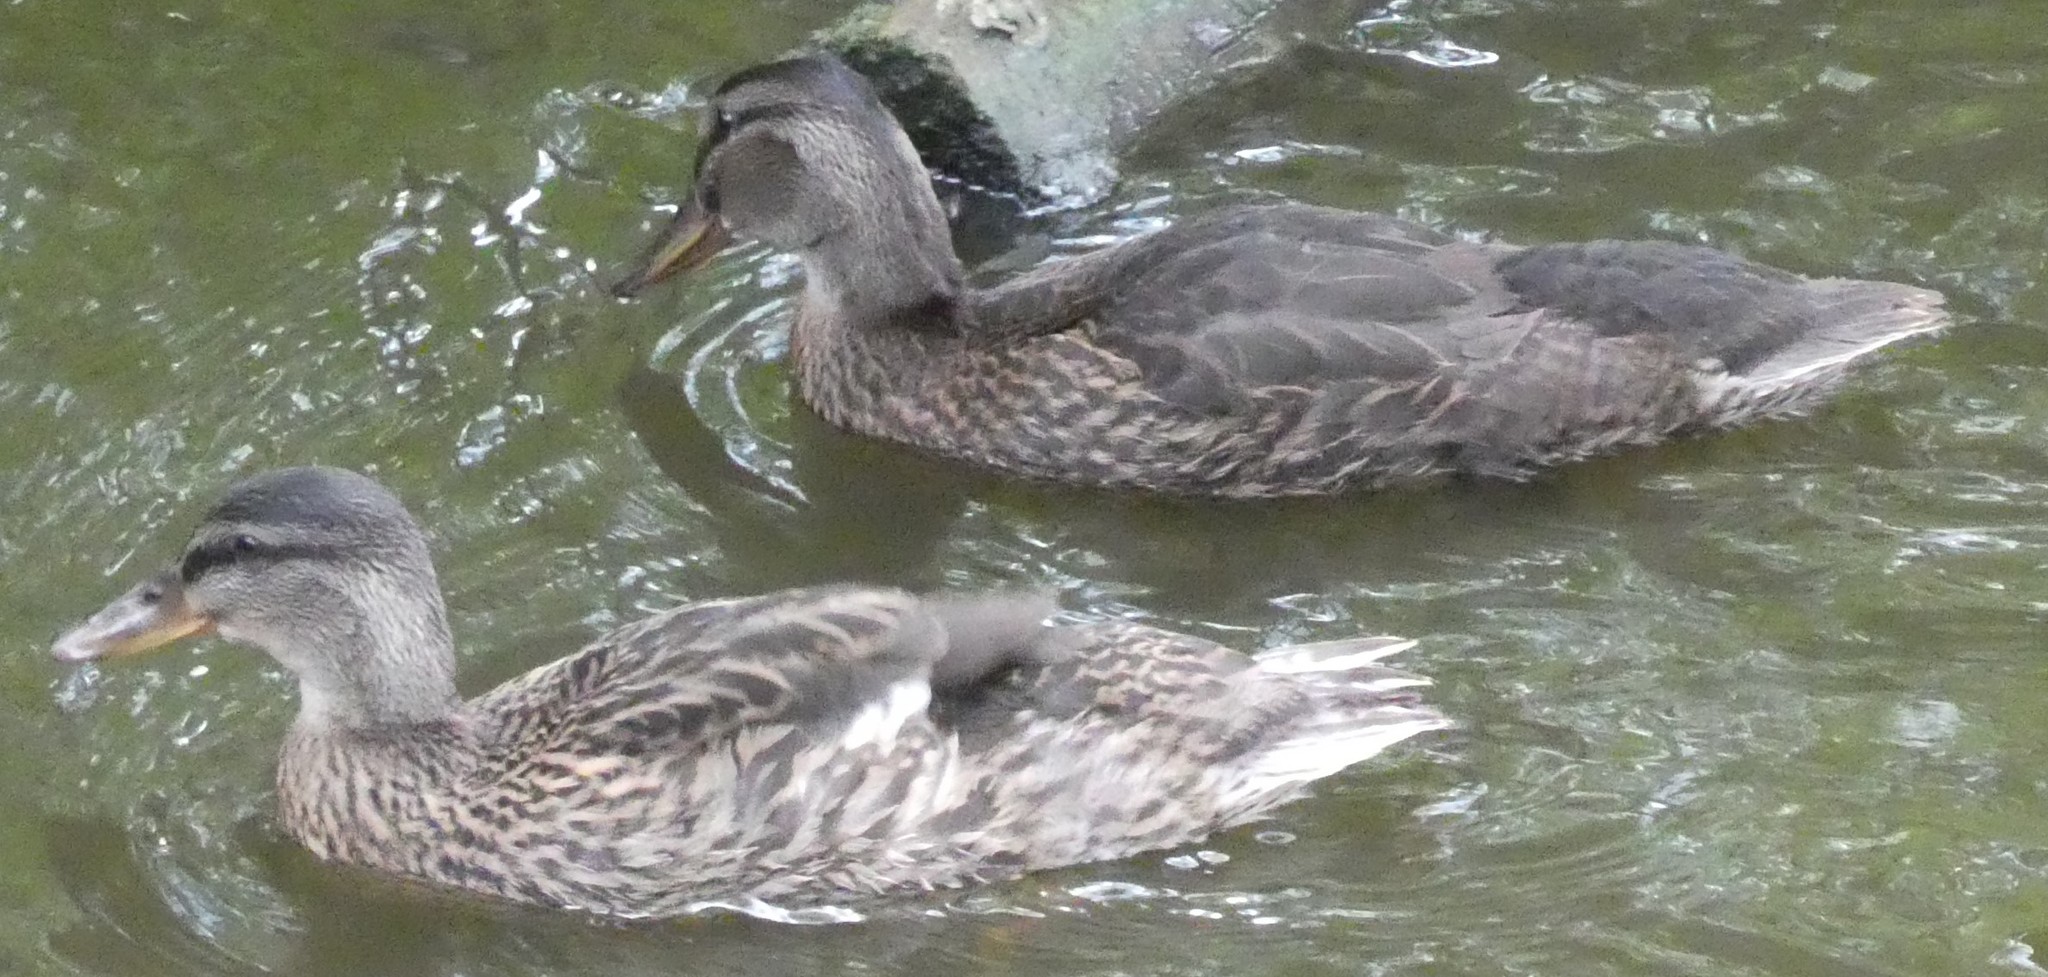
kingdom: Animalia
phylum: Chordata
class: Aves
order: Anseriformes
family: Anatidae
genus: Anas
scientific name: Anas platyrhynchos
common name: Mallard
